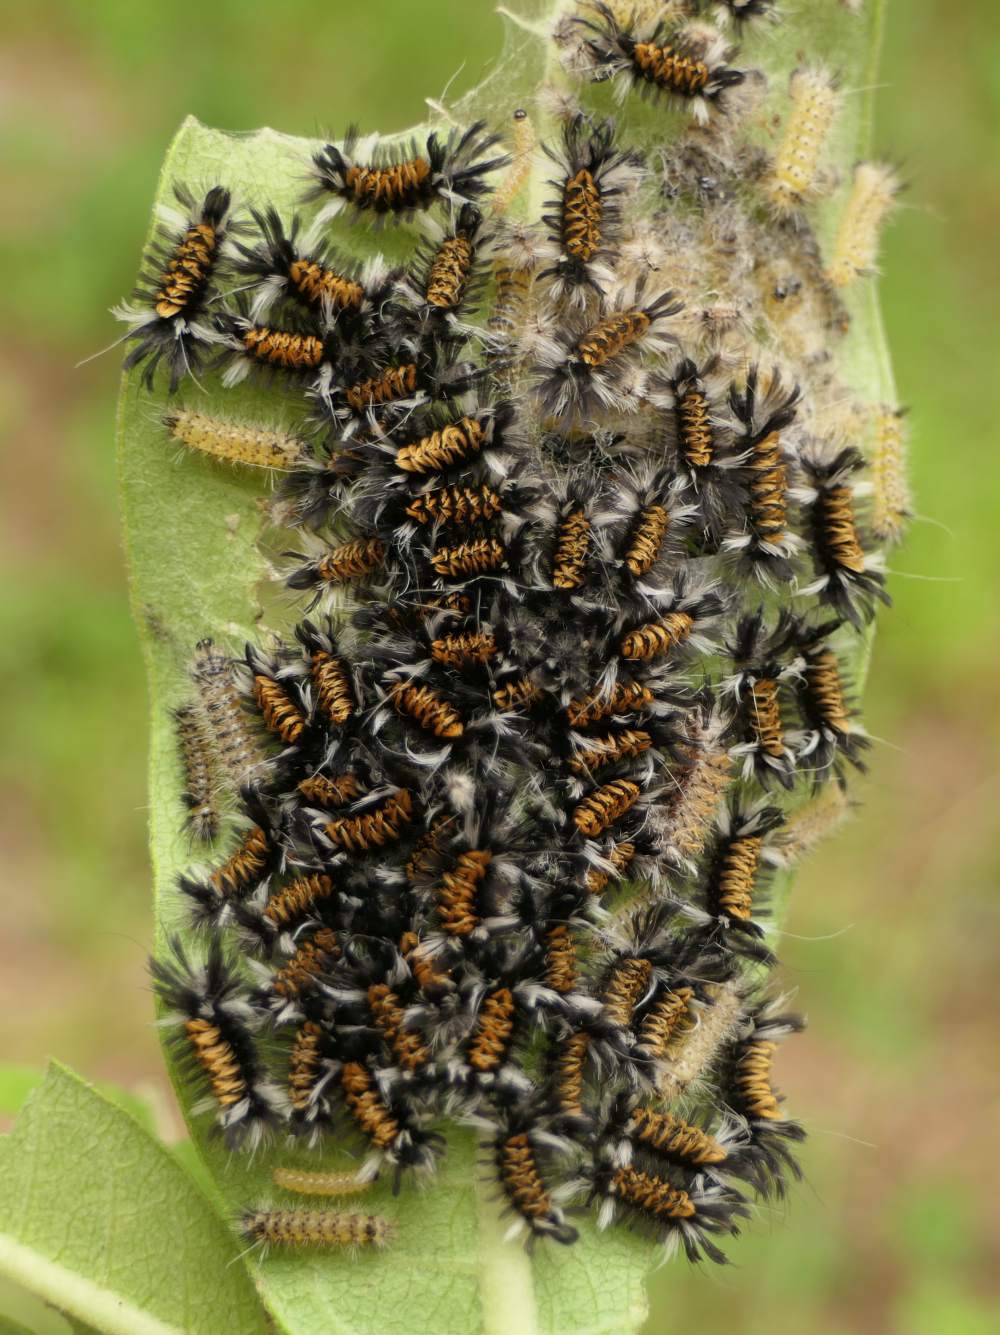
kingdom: Animalia
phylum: Arthropoda
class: Insecta
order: Lepidoptera
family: Erebidae
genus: Euchaetes
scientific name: Euchaetes egle
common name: Milkweed tussock moth
